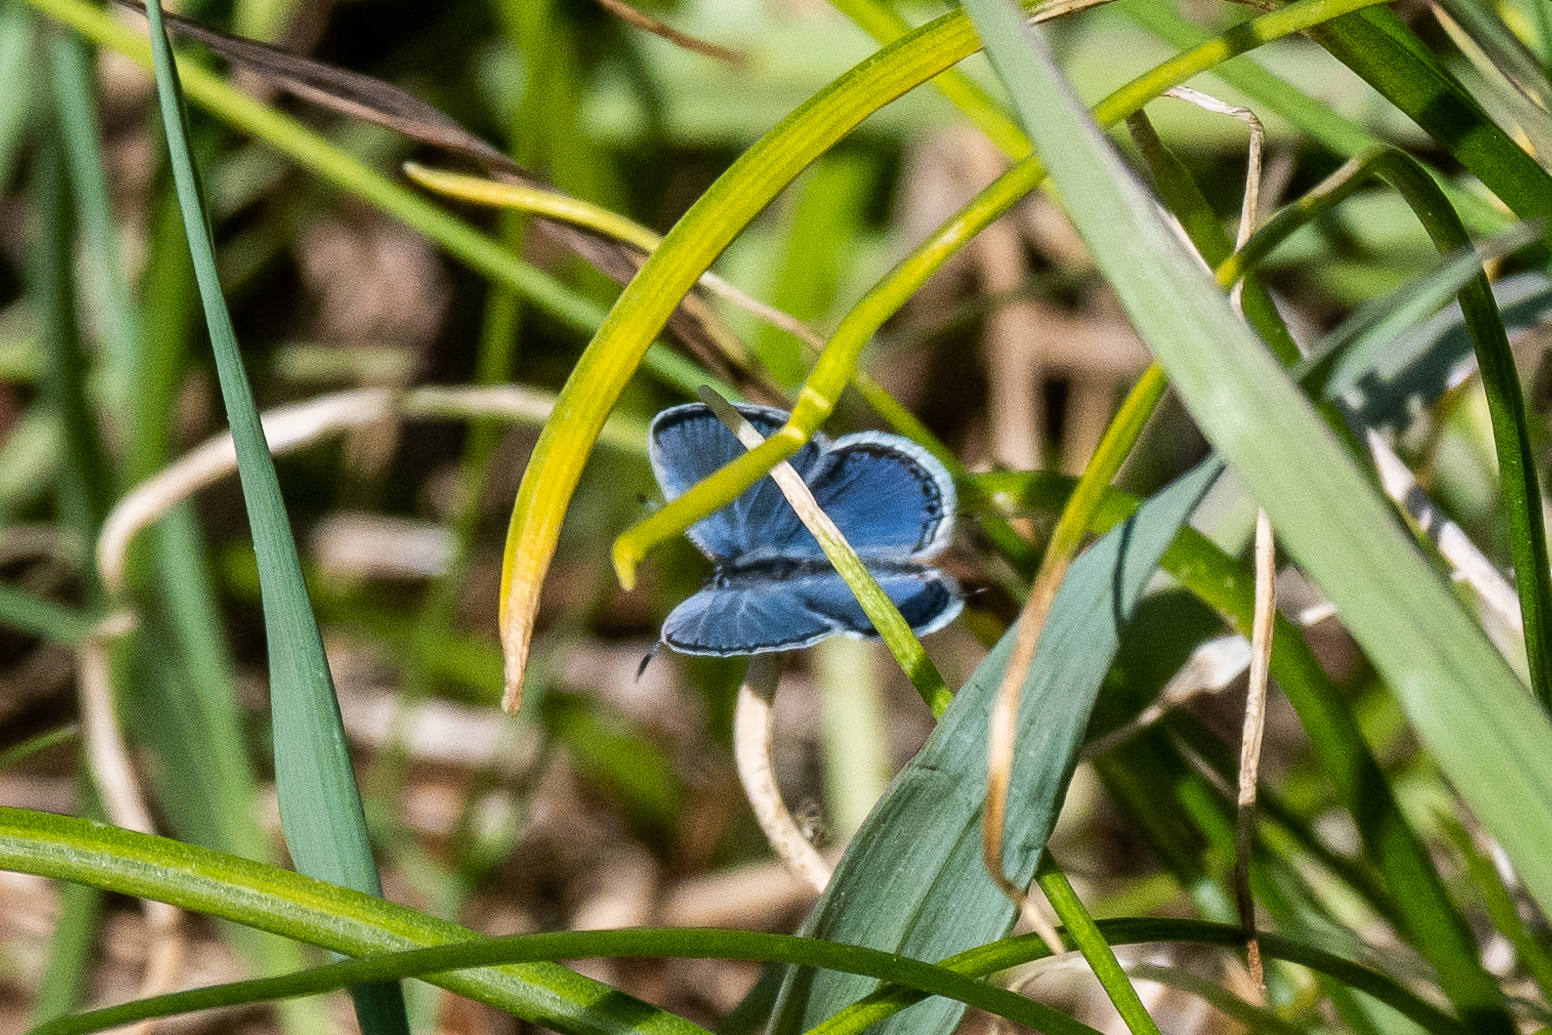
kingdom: Animalia
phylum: Arthropoda
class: Insecta
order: Lepidoptera
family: Lycaenidae
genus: Elkalyce
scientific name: Elkalyce comyntas
